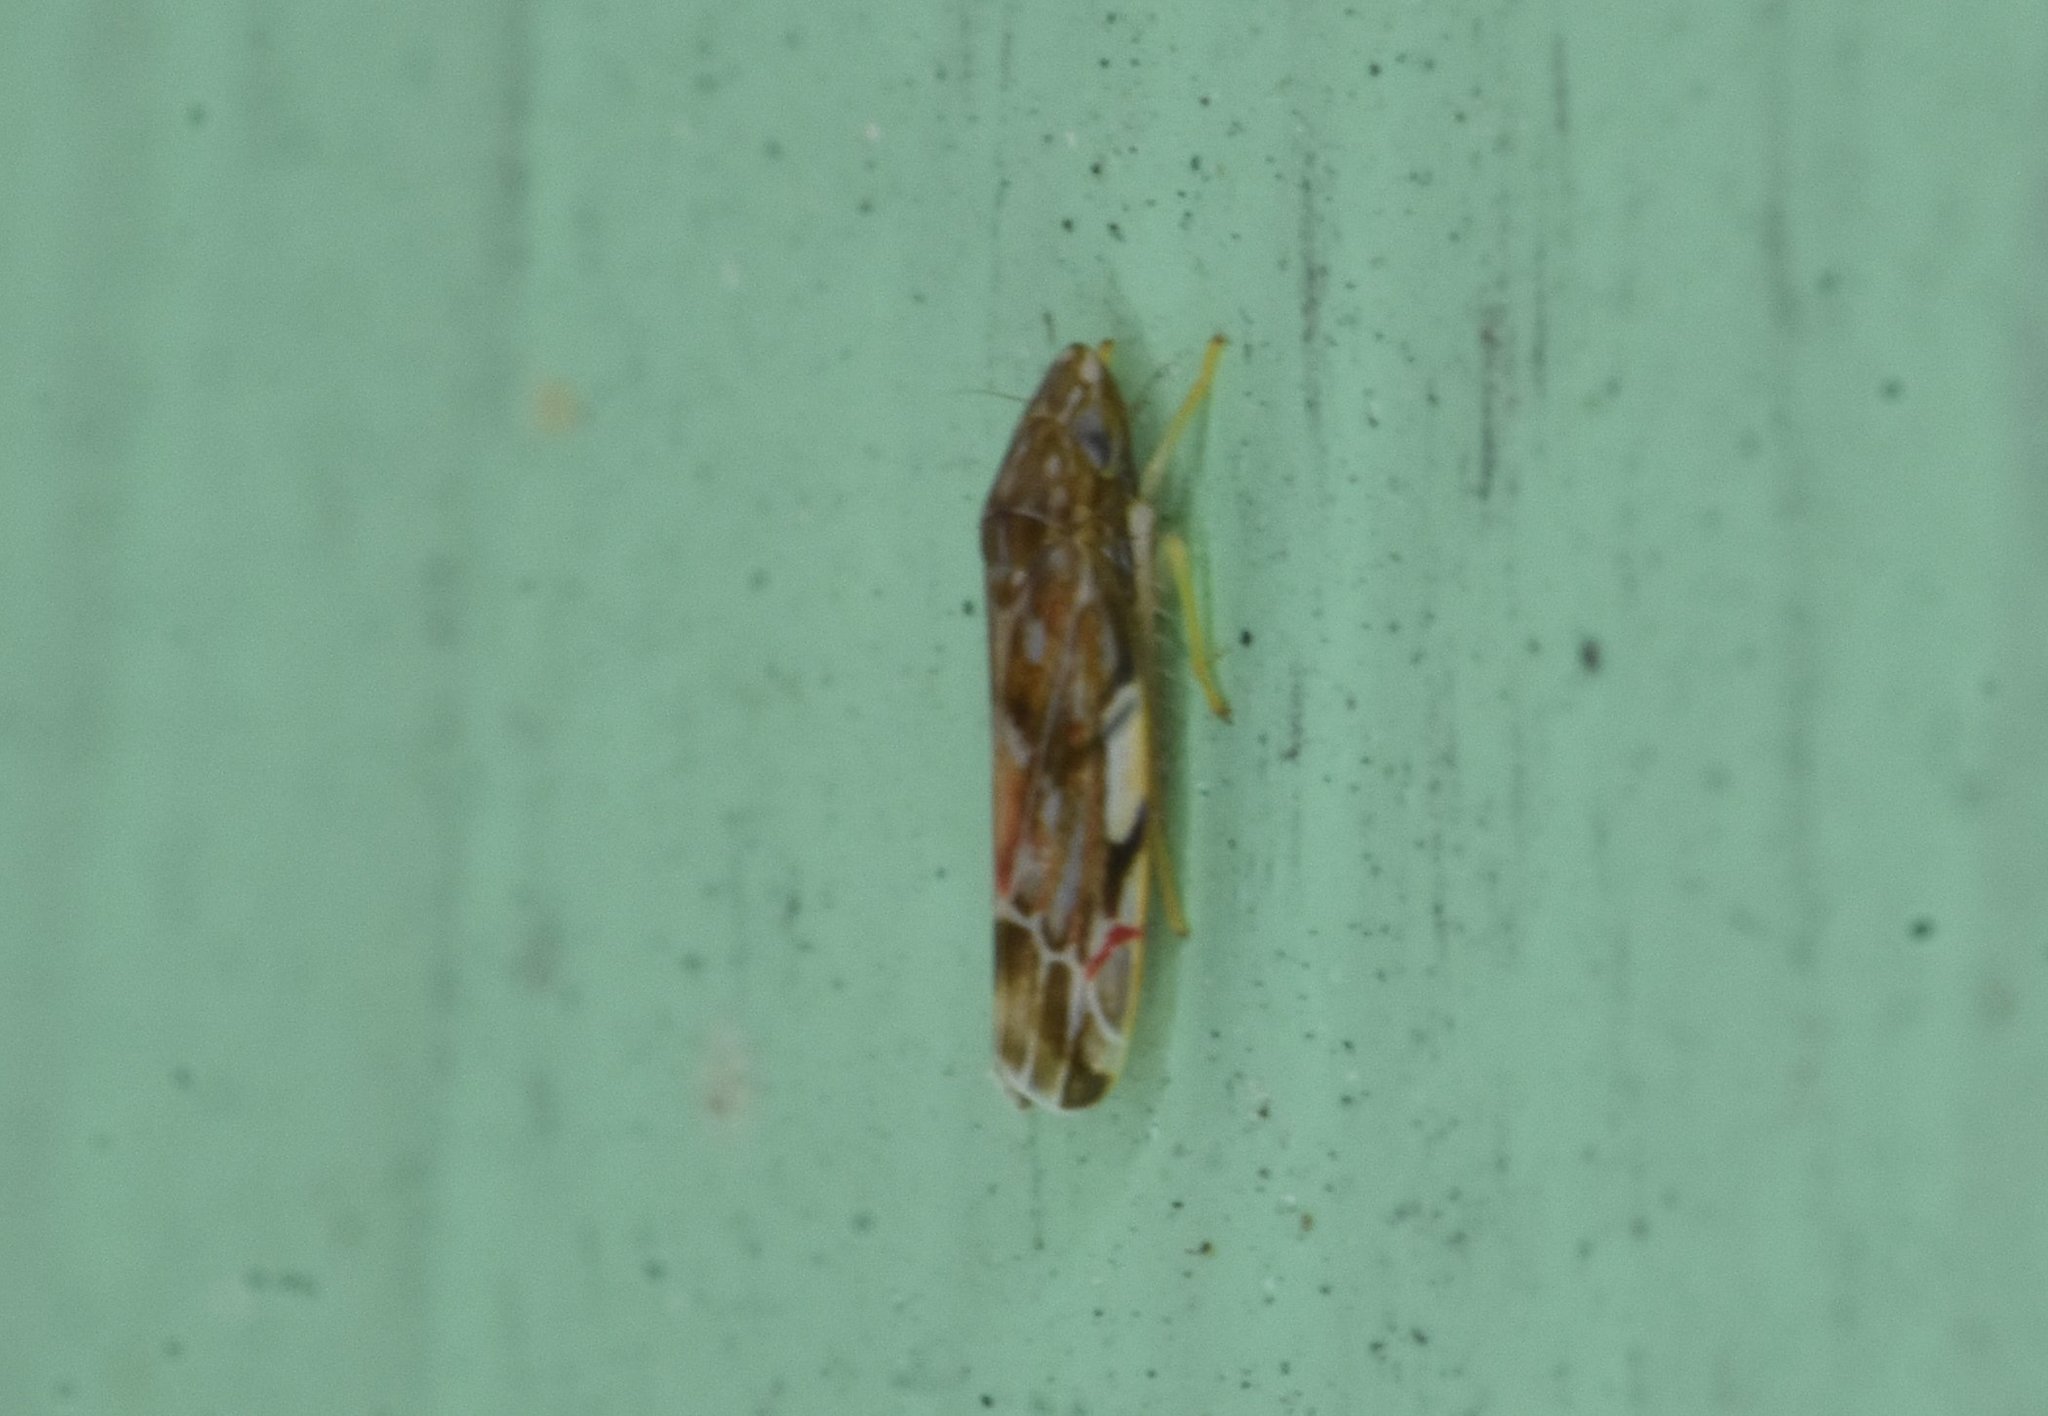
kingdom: Animalia
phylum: Arthropoda
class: Insecta
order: Hemiptera
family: Cicadellidae
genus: Erasmoneura
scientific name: Erasmoneura vulnerata
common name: The wounded leafhopper
